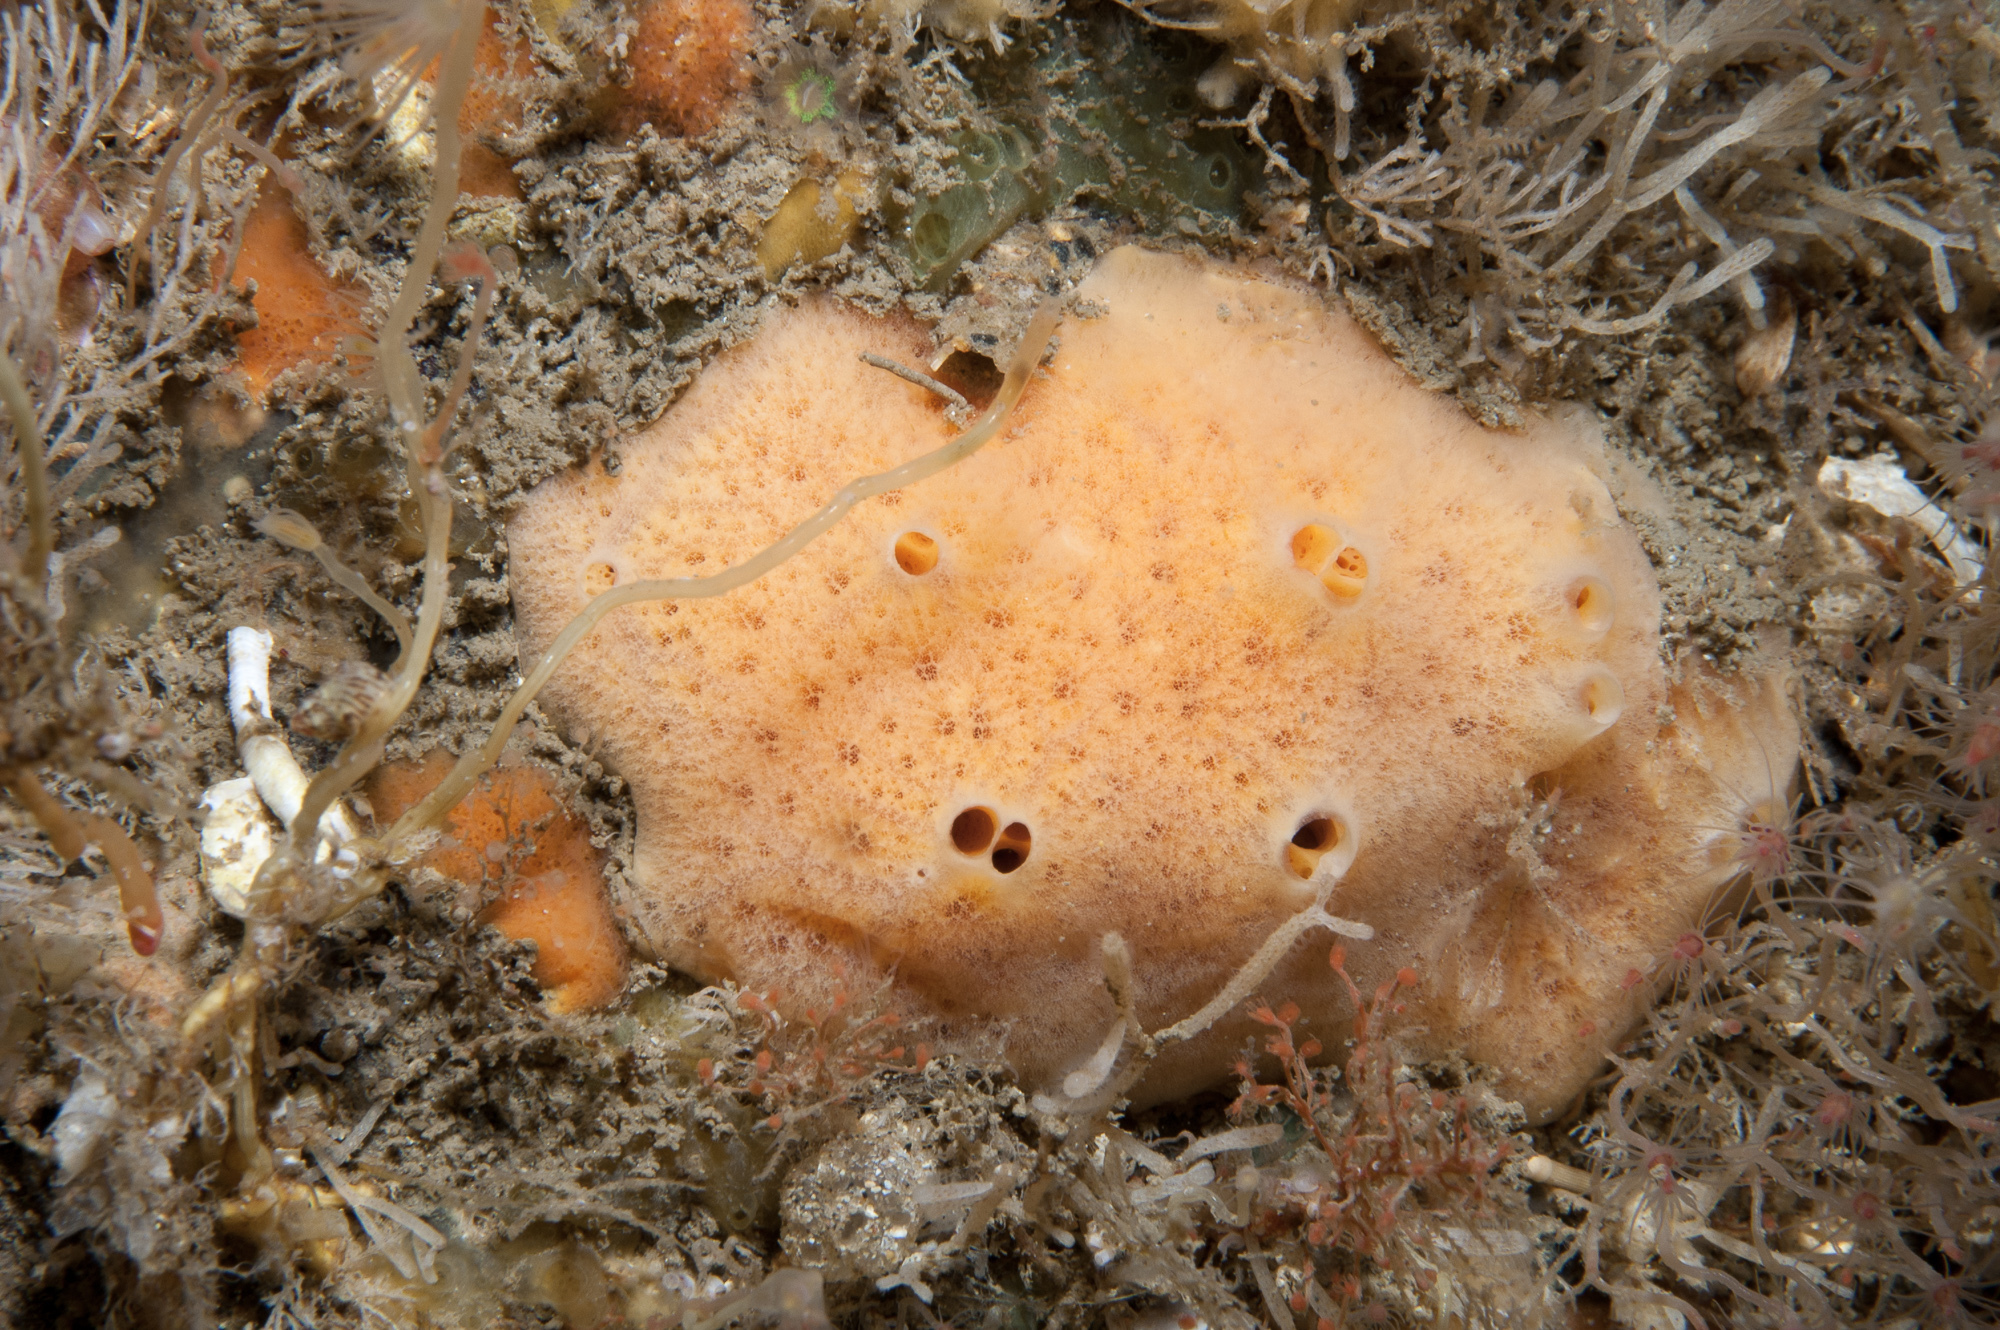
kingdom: Animalia
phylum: Porifera
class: Demospongiae
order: Poecilosclerida
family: Myxillidae
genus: Myxilla
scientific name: Myxilla fimbriata
